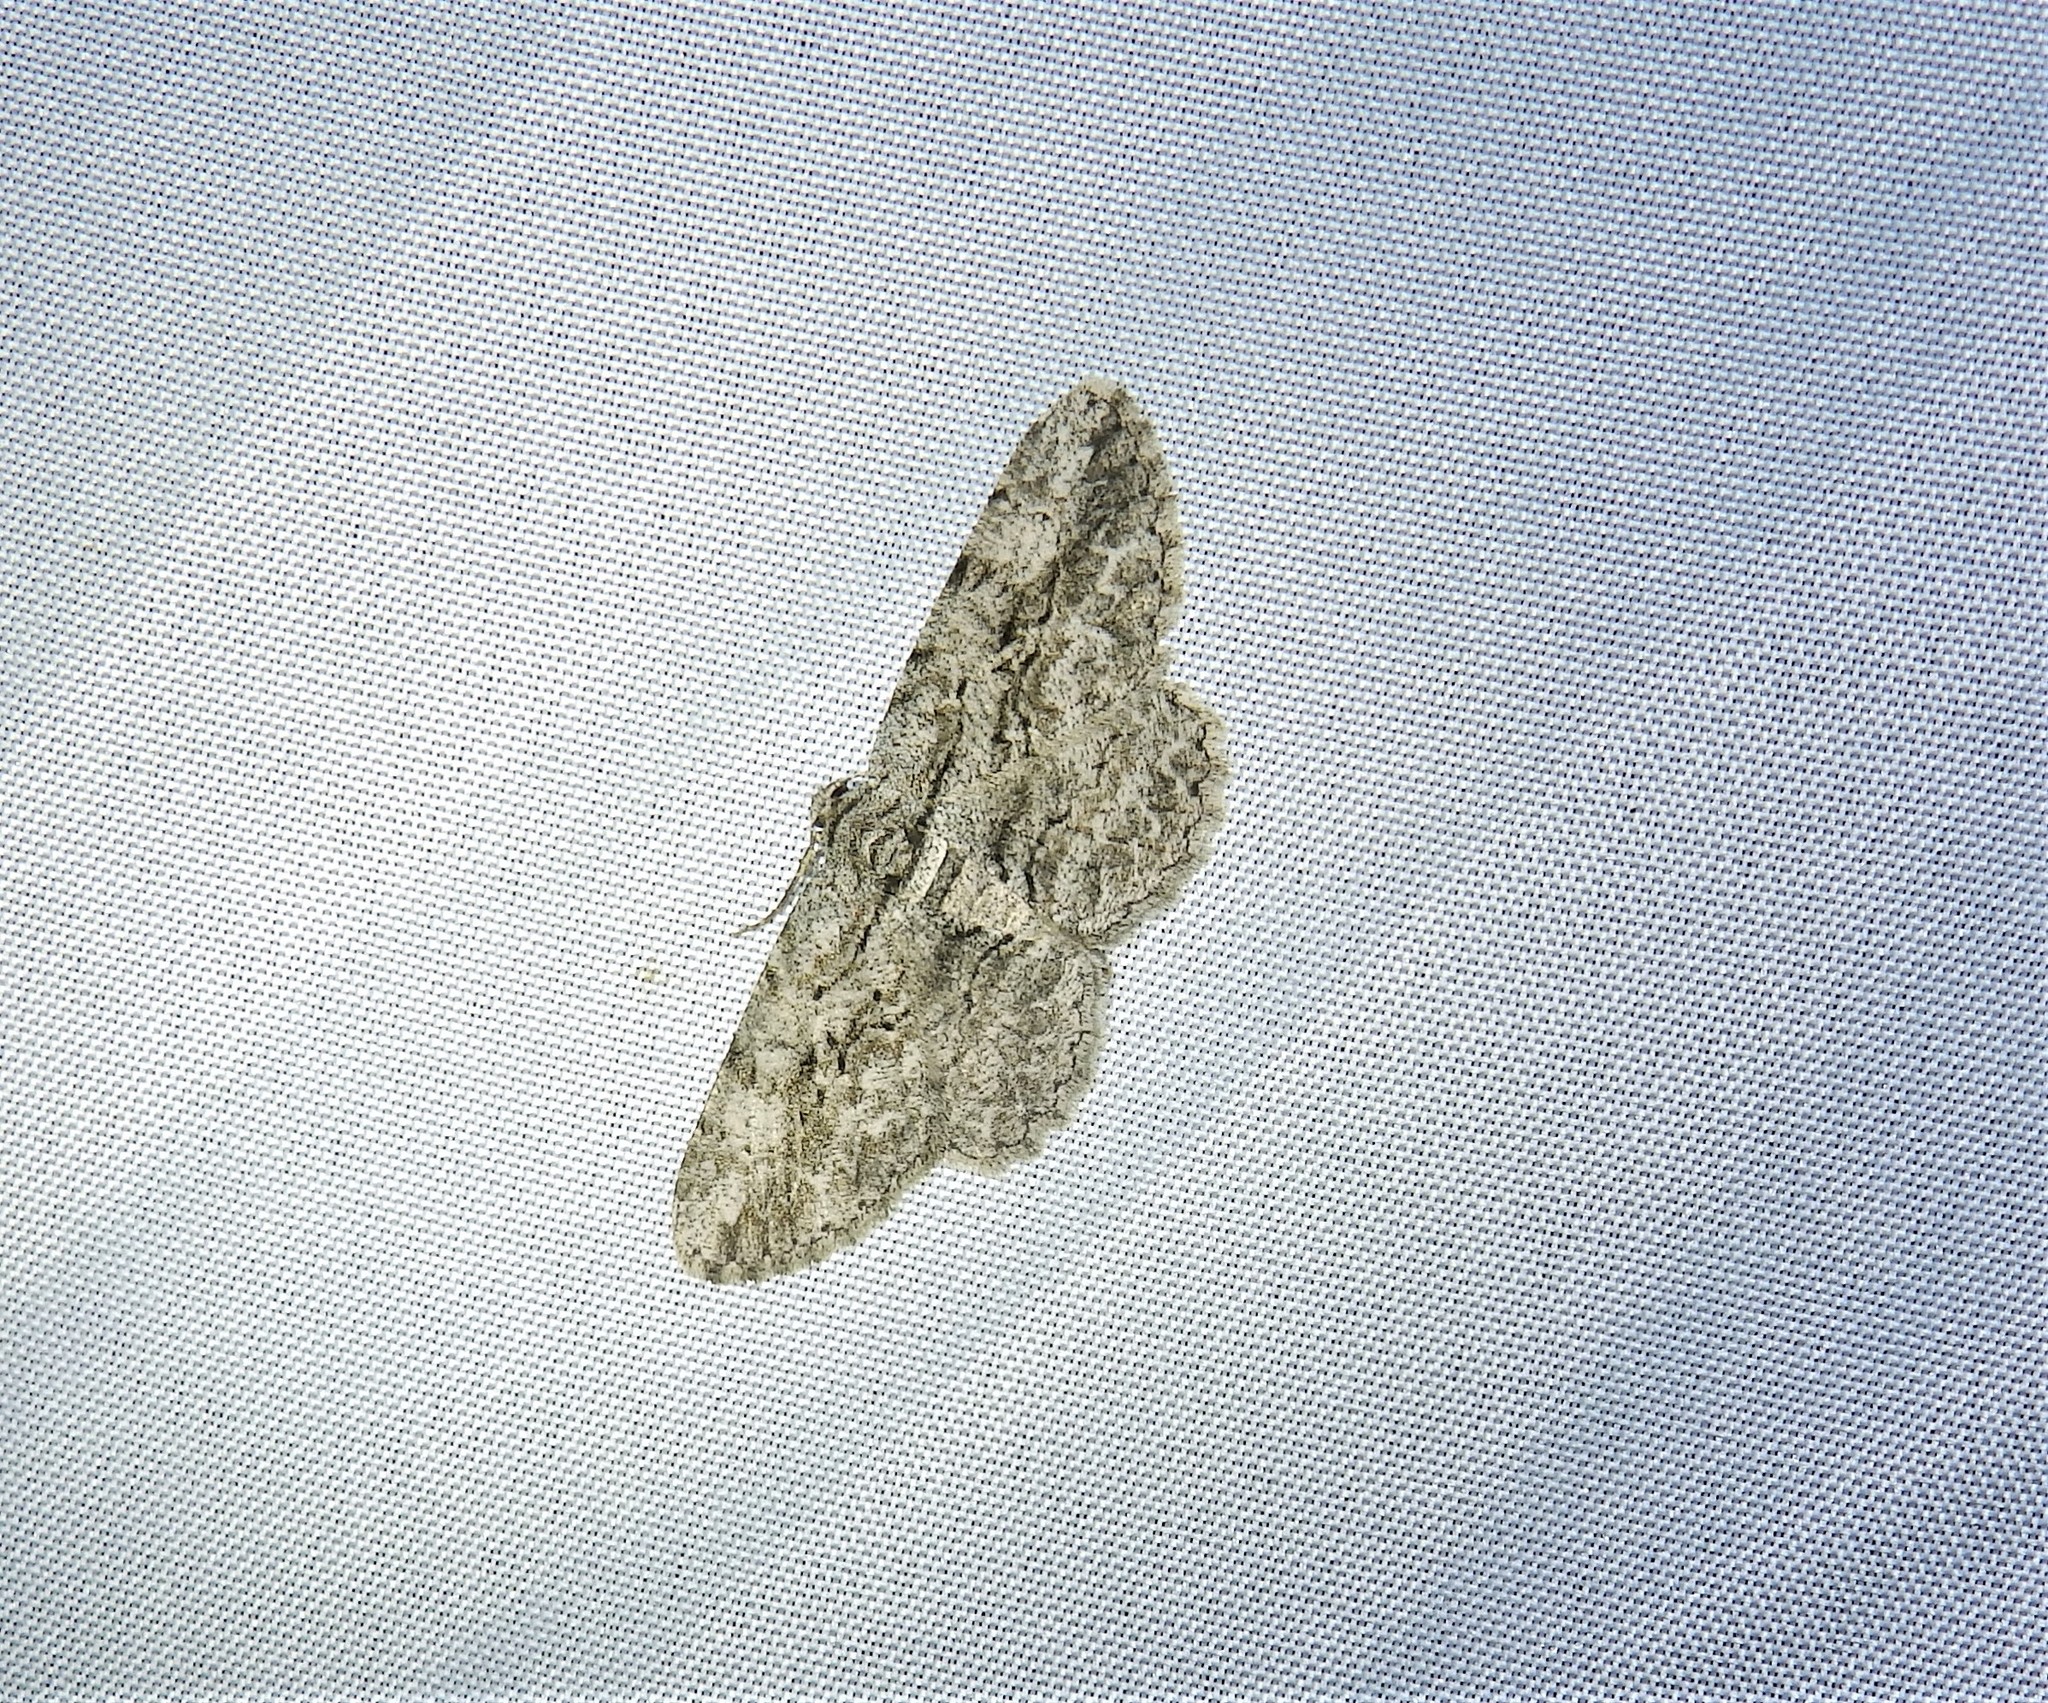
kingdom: Animalia
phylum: Arthropoda
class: Insecta
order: Lepidoptera
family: Geometridae
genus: Anavitrinella
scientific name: Anavitrinella pampinaria
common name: Common gray
